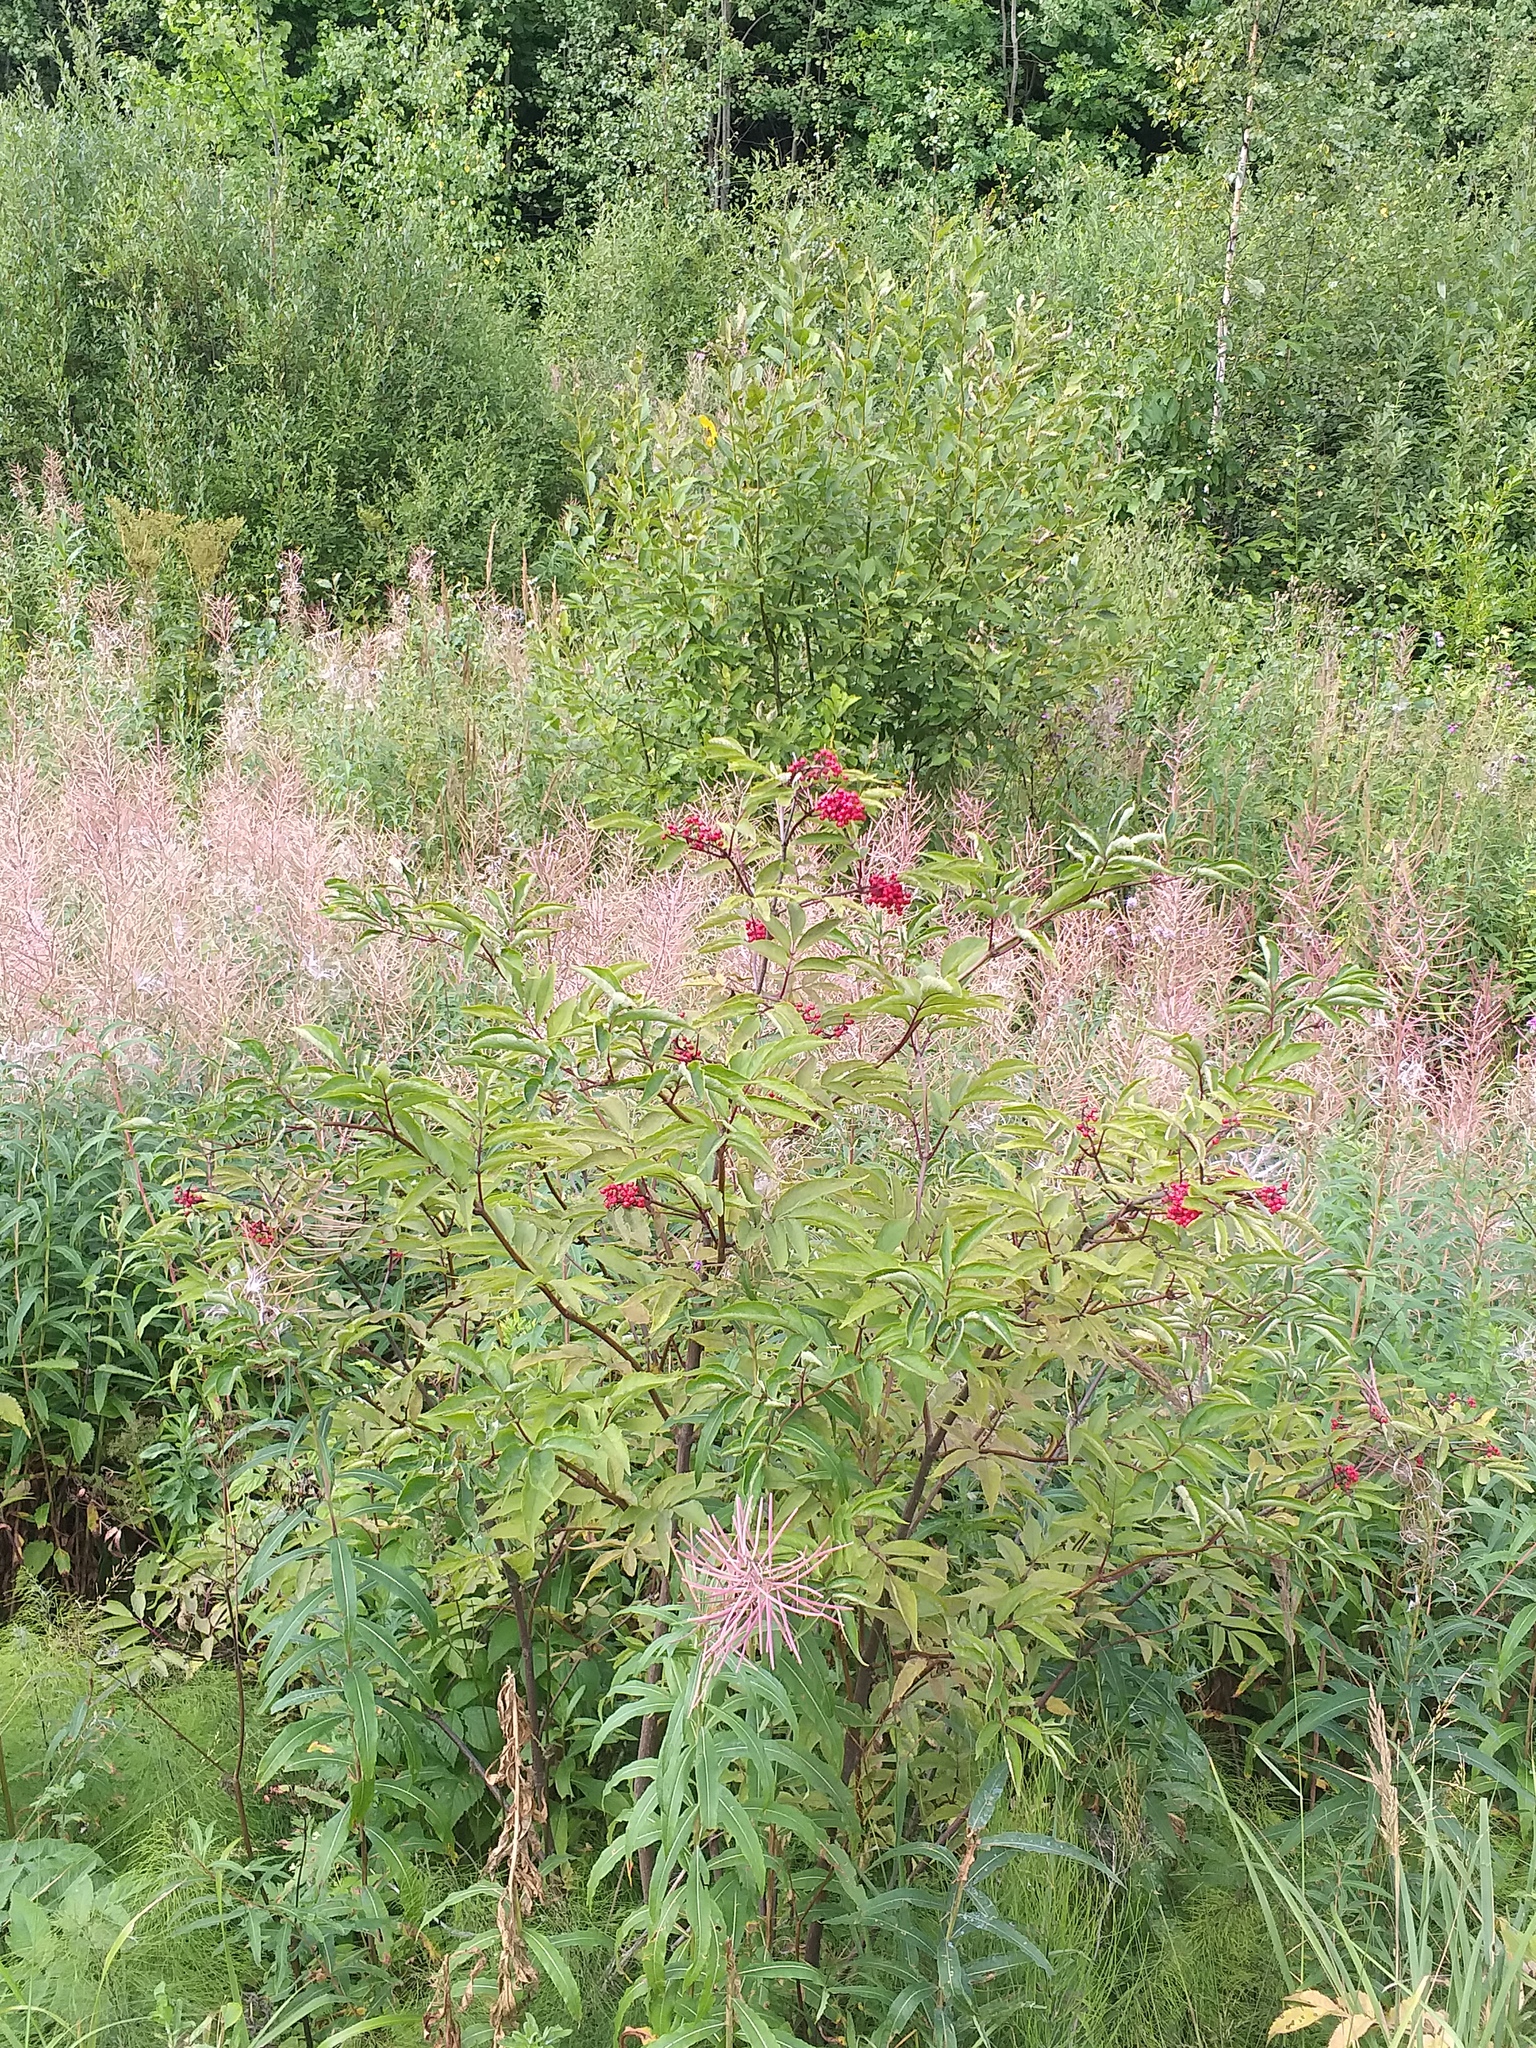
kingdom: Plantae
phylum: Tracheophyta
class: Magnoliopsida
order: Dipsacales
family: Viburnaceae
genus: Sambucus
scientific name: Sambucus racemosa
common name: Red-berried elder
